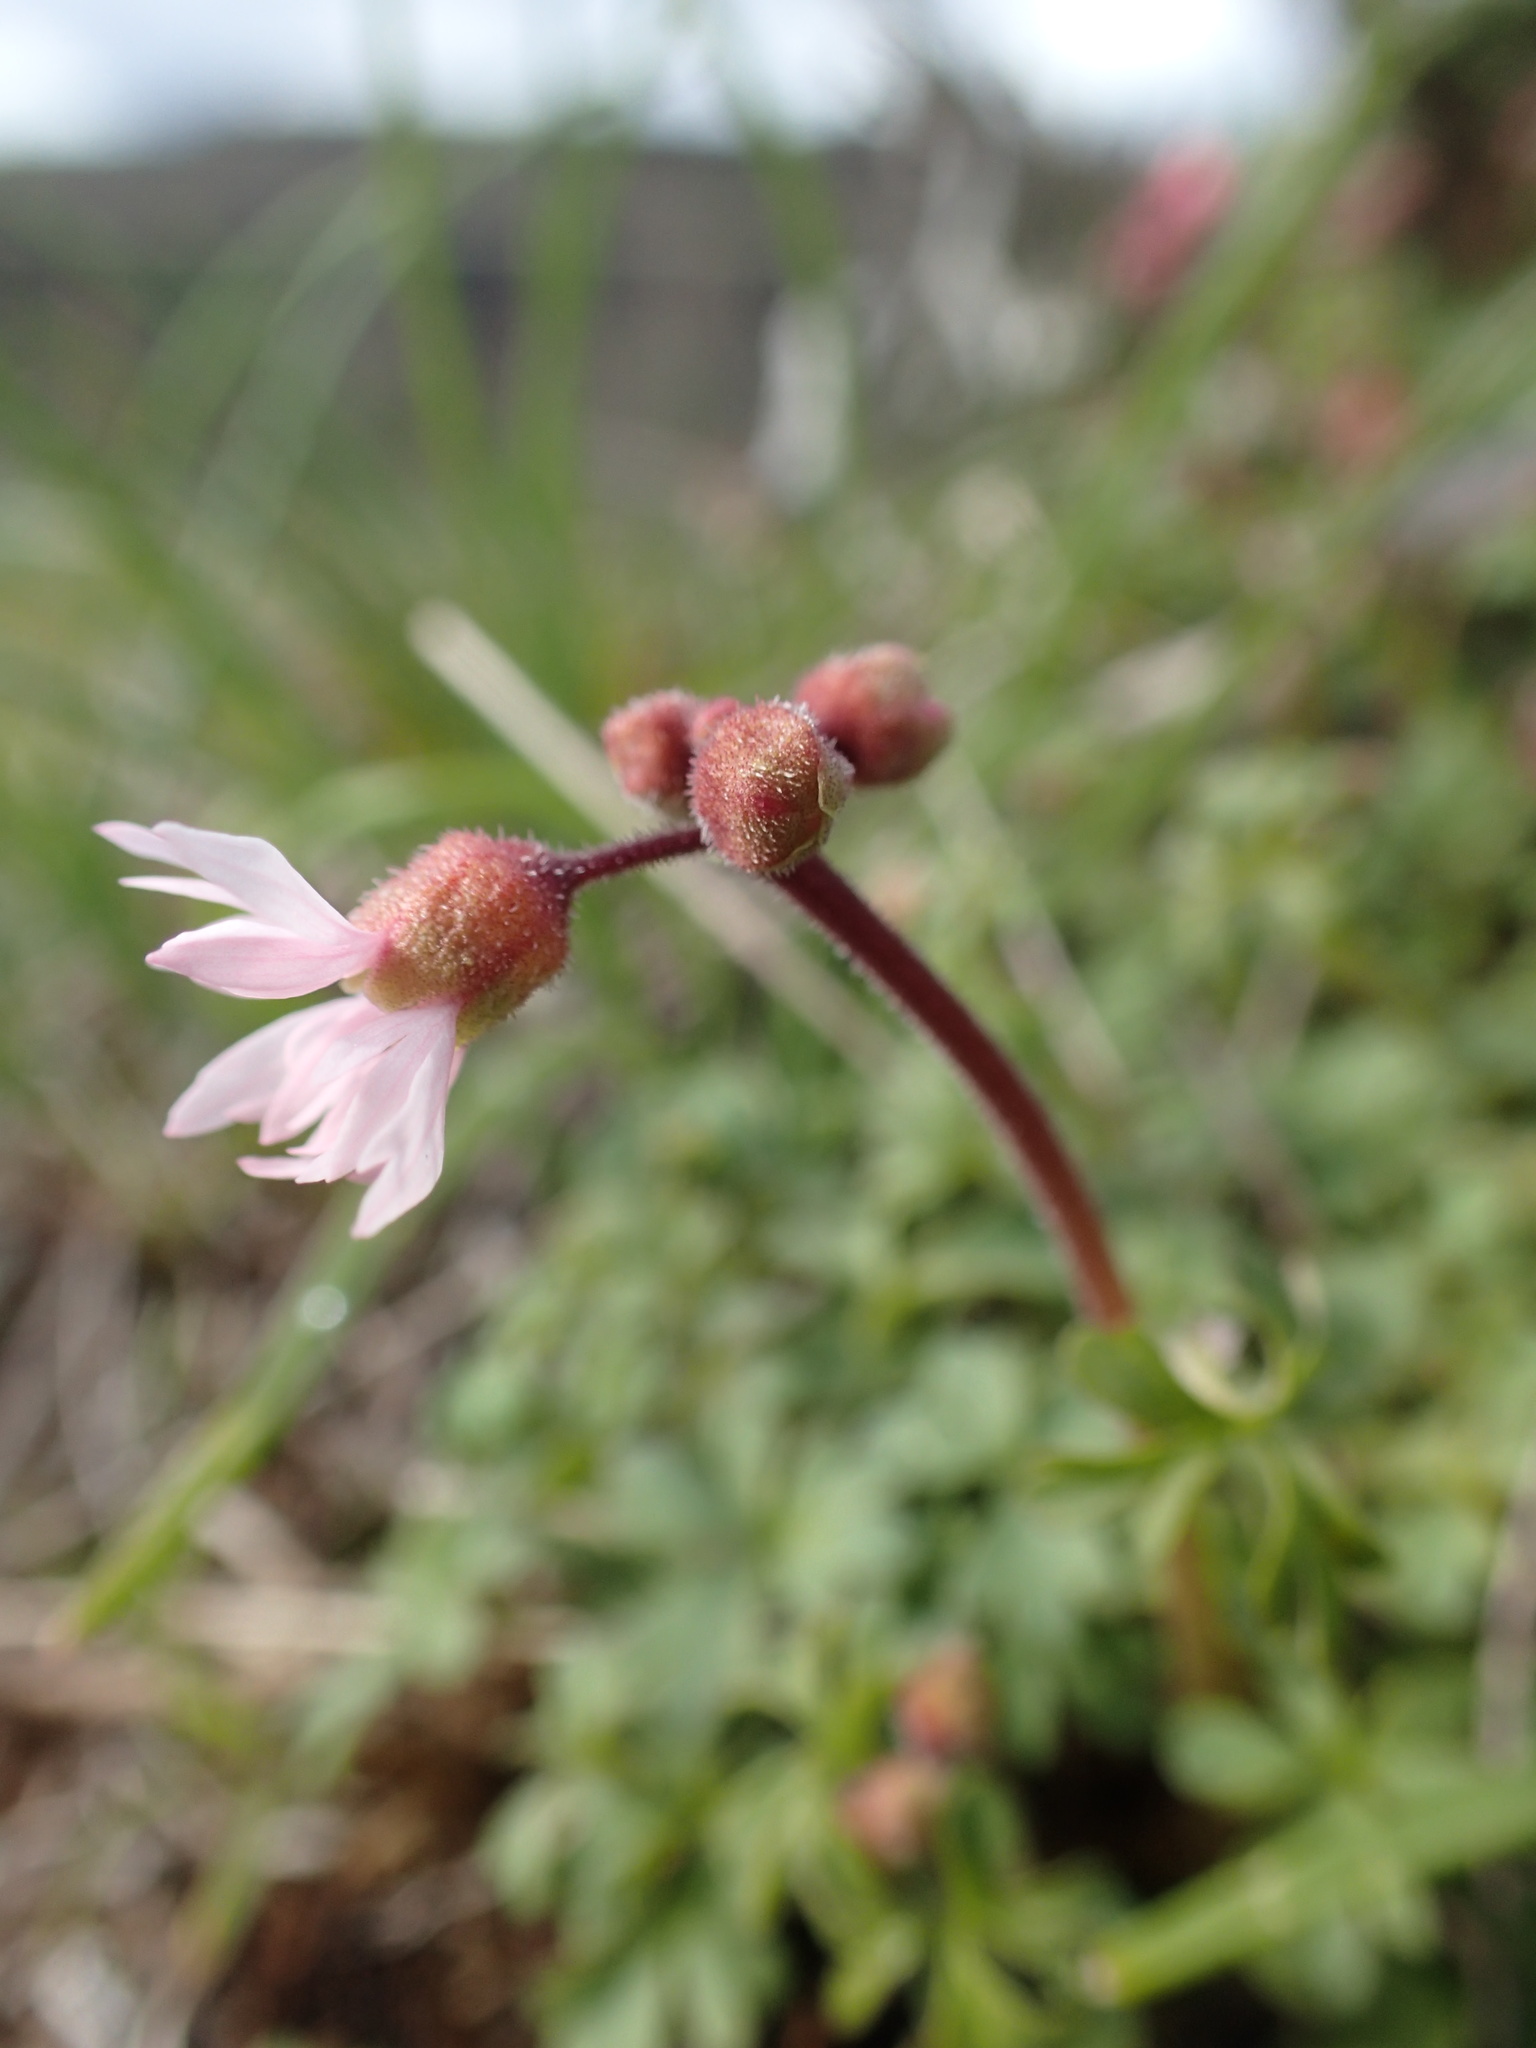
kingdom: Plantae
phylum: Tracheophyta
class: Magnoliopsida
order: Saxifragales
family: Saxifragaceae
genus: Lithophragma
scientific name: Lithophragma glabrum
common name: Bulbous prairie-star
